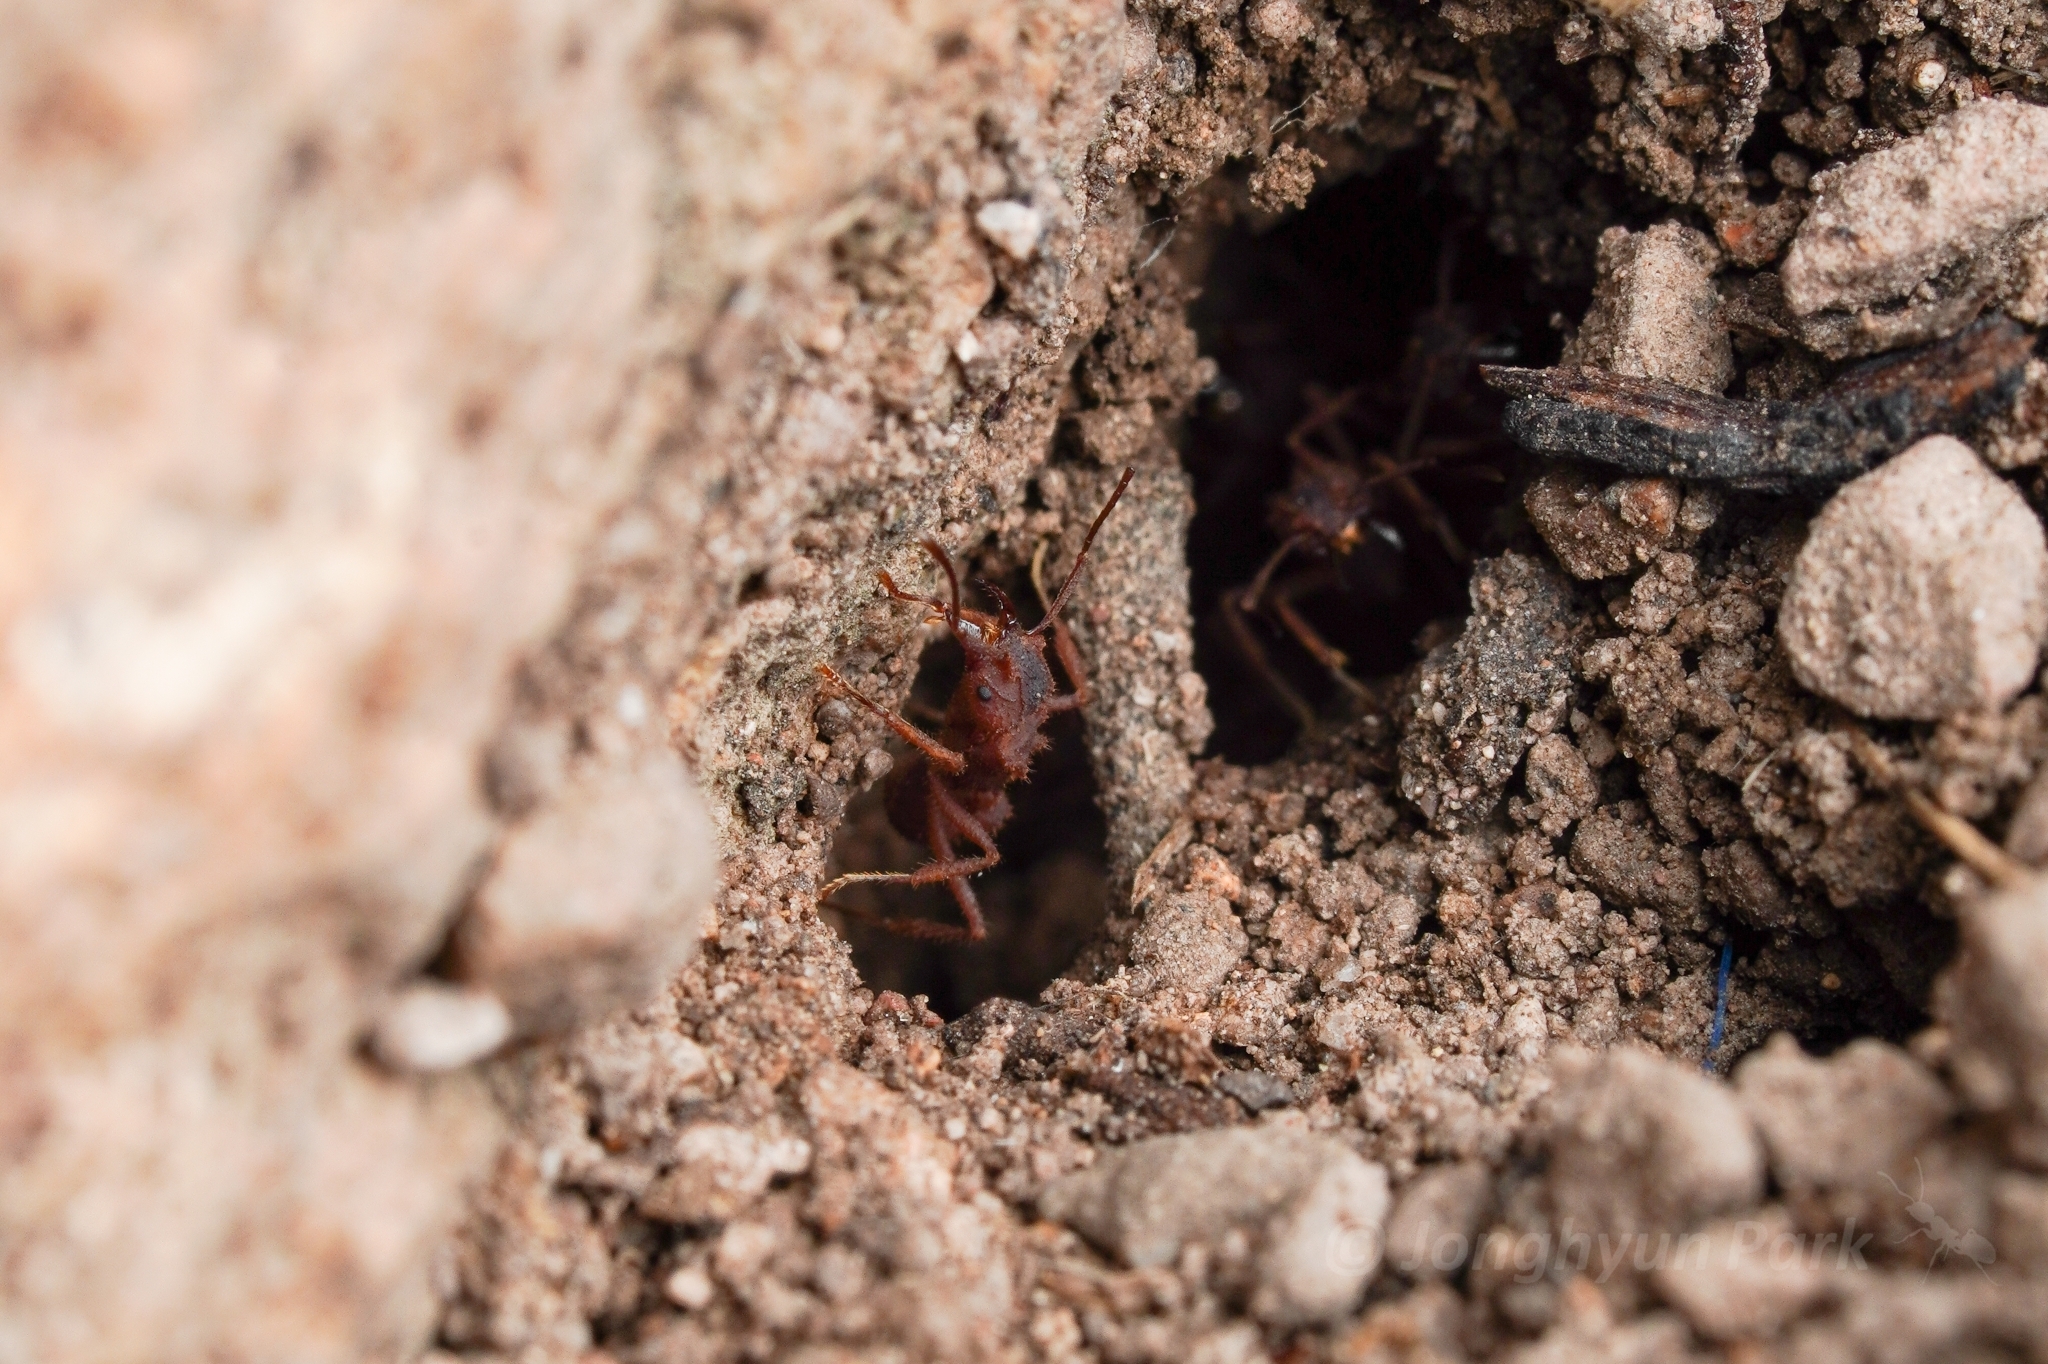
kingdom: Animalia
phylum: Arthropoda
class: Insecta
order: Hymenoptera
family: Formicidae
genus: Trachymyrmex
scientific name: Trachymyrmex arizonensis
